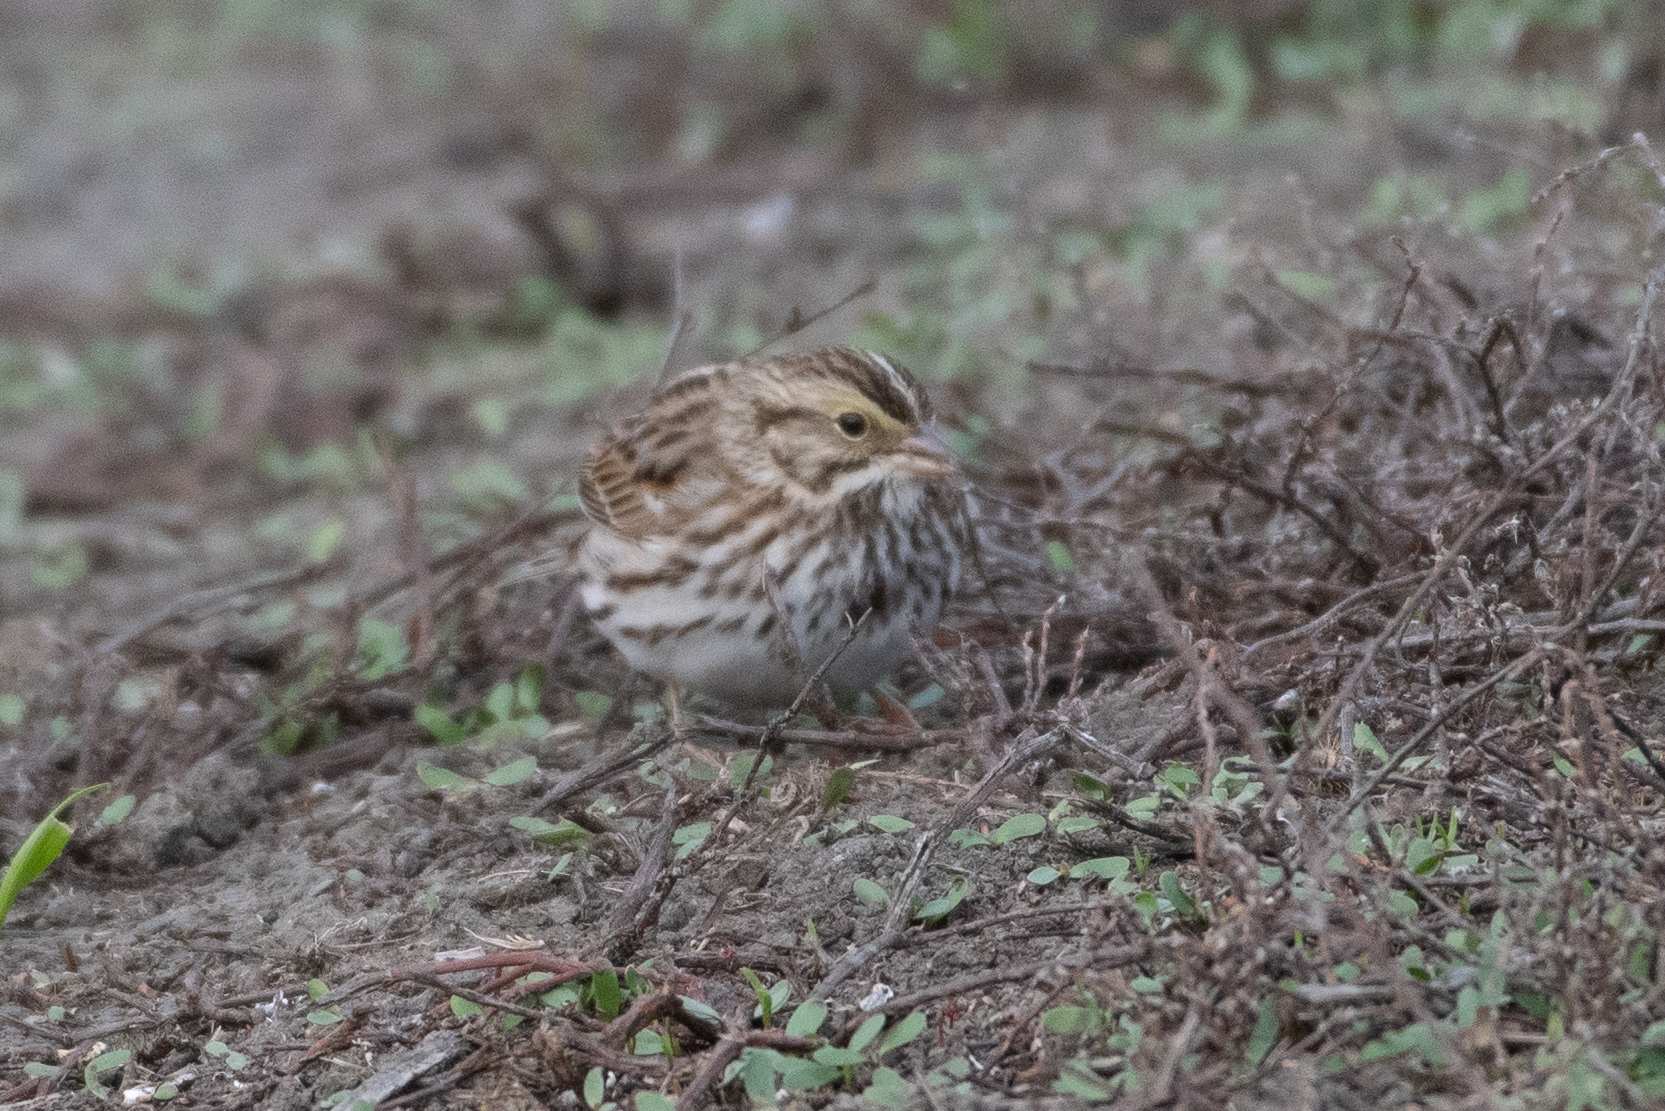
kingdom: Animalia
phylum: Chordata
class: Aves
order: Passeriformes
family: Passerellidae
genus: Passerculus
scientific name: Passerculus sandwichensis
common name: Savannah sparrow
